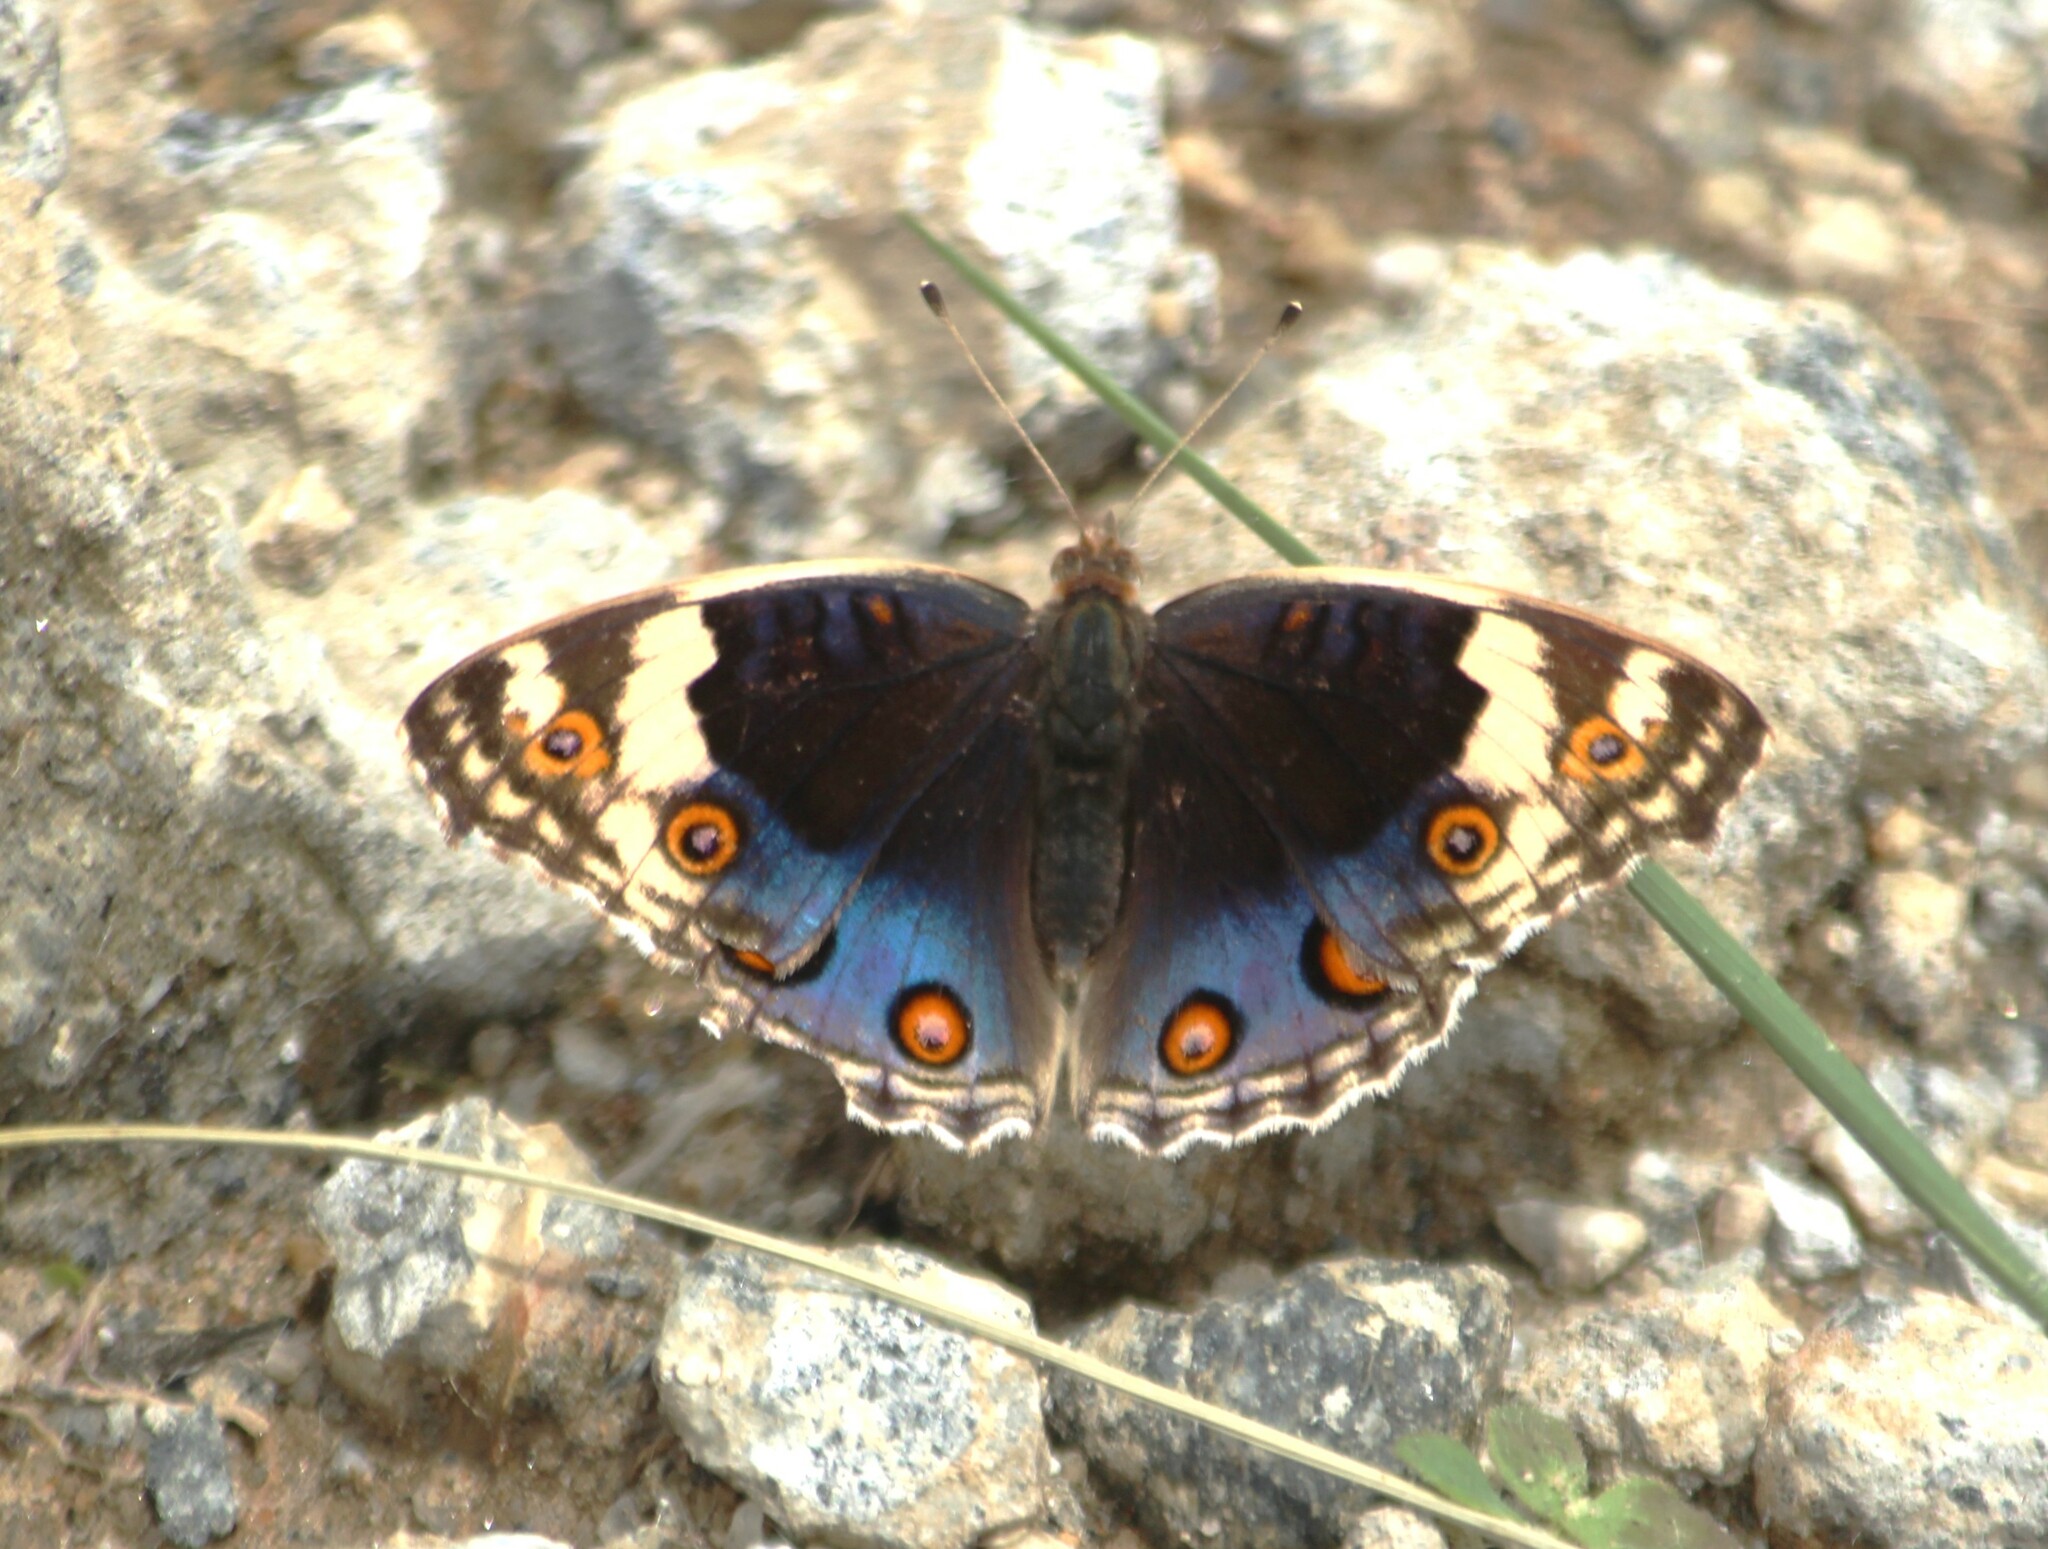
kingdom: Animalia
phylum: Arthropoda
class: Insecta
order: Lepidoptera
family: Nymphalidae
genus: Junonia
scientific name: Junonia orithya
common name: Blue pansy
